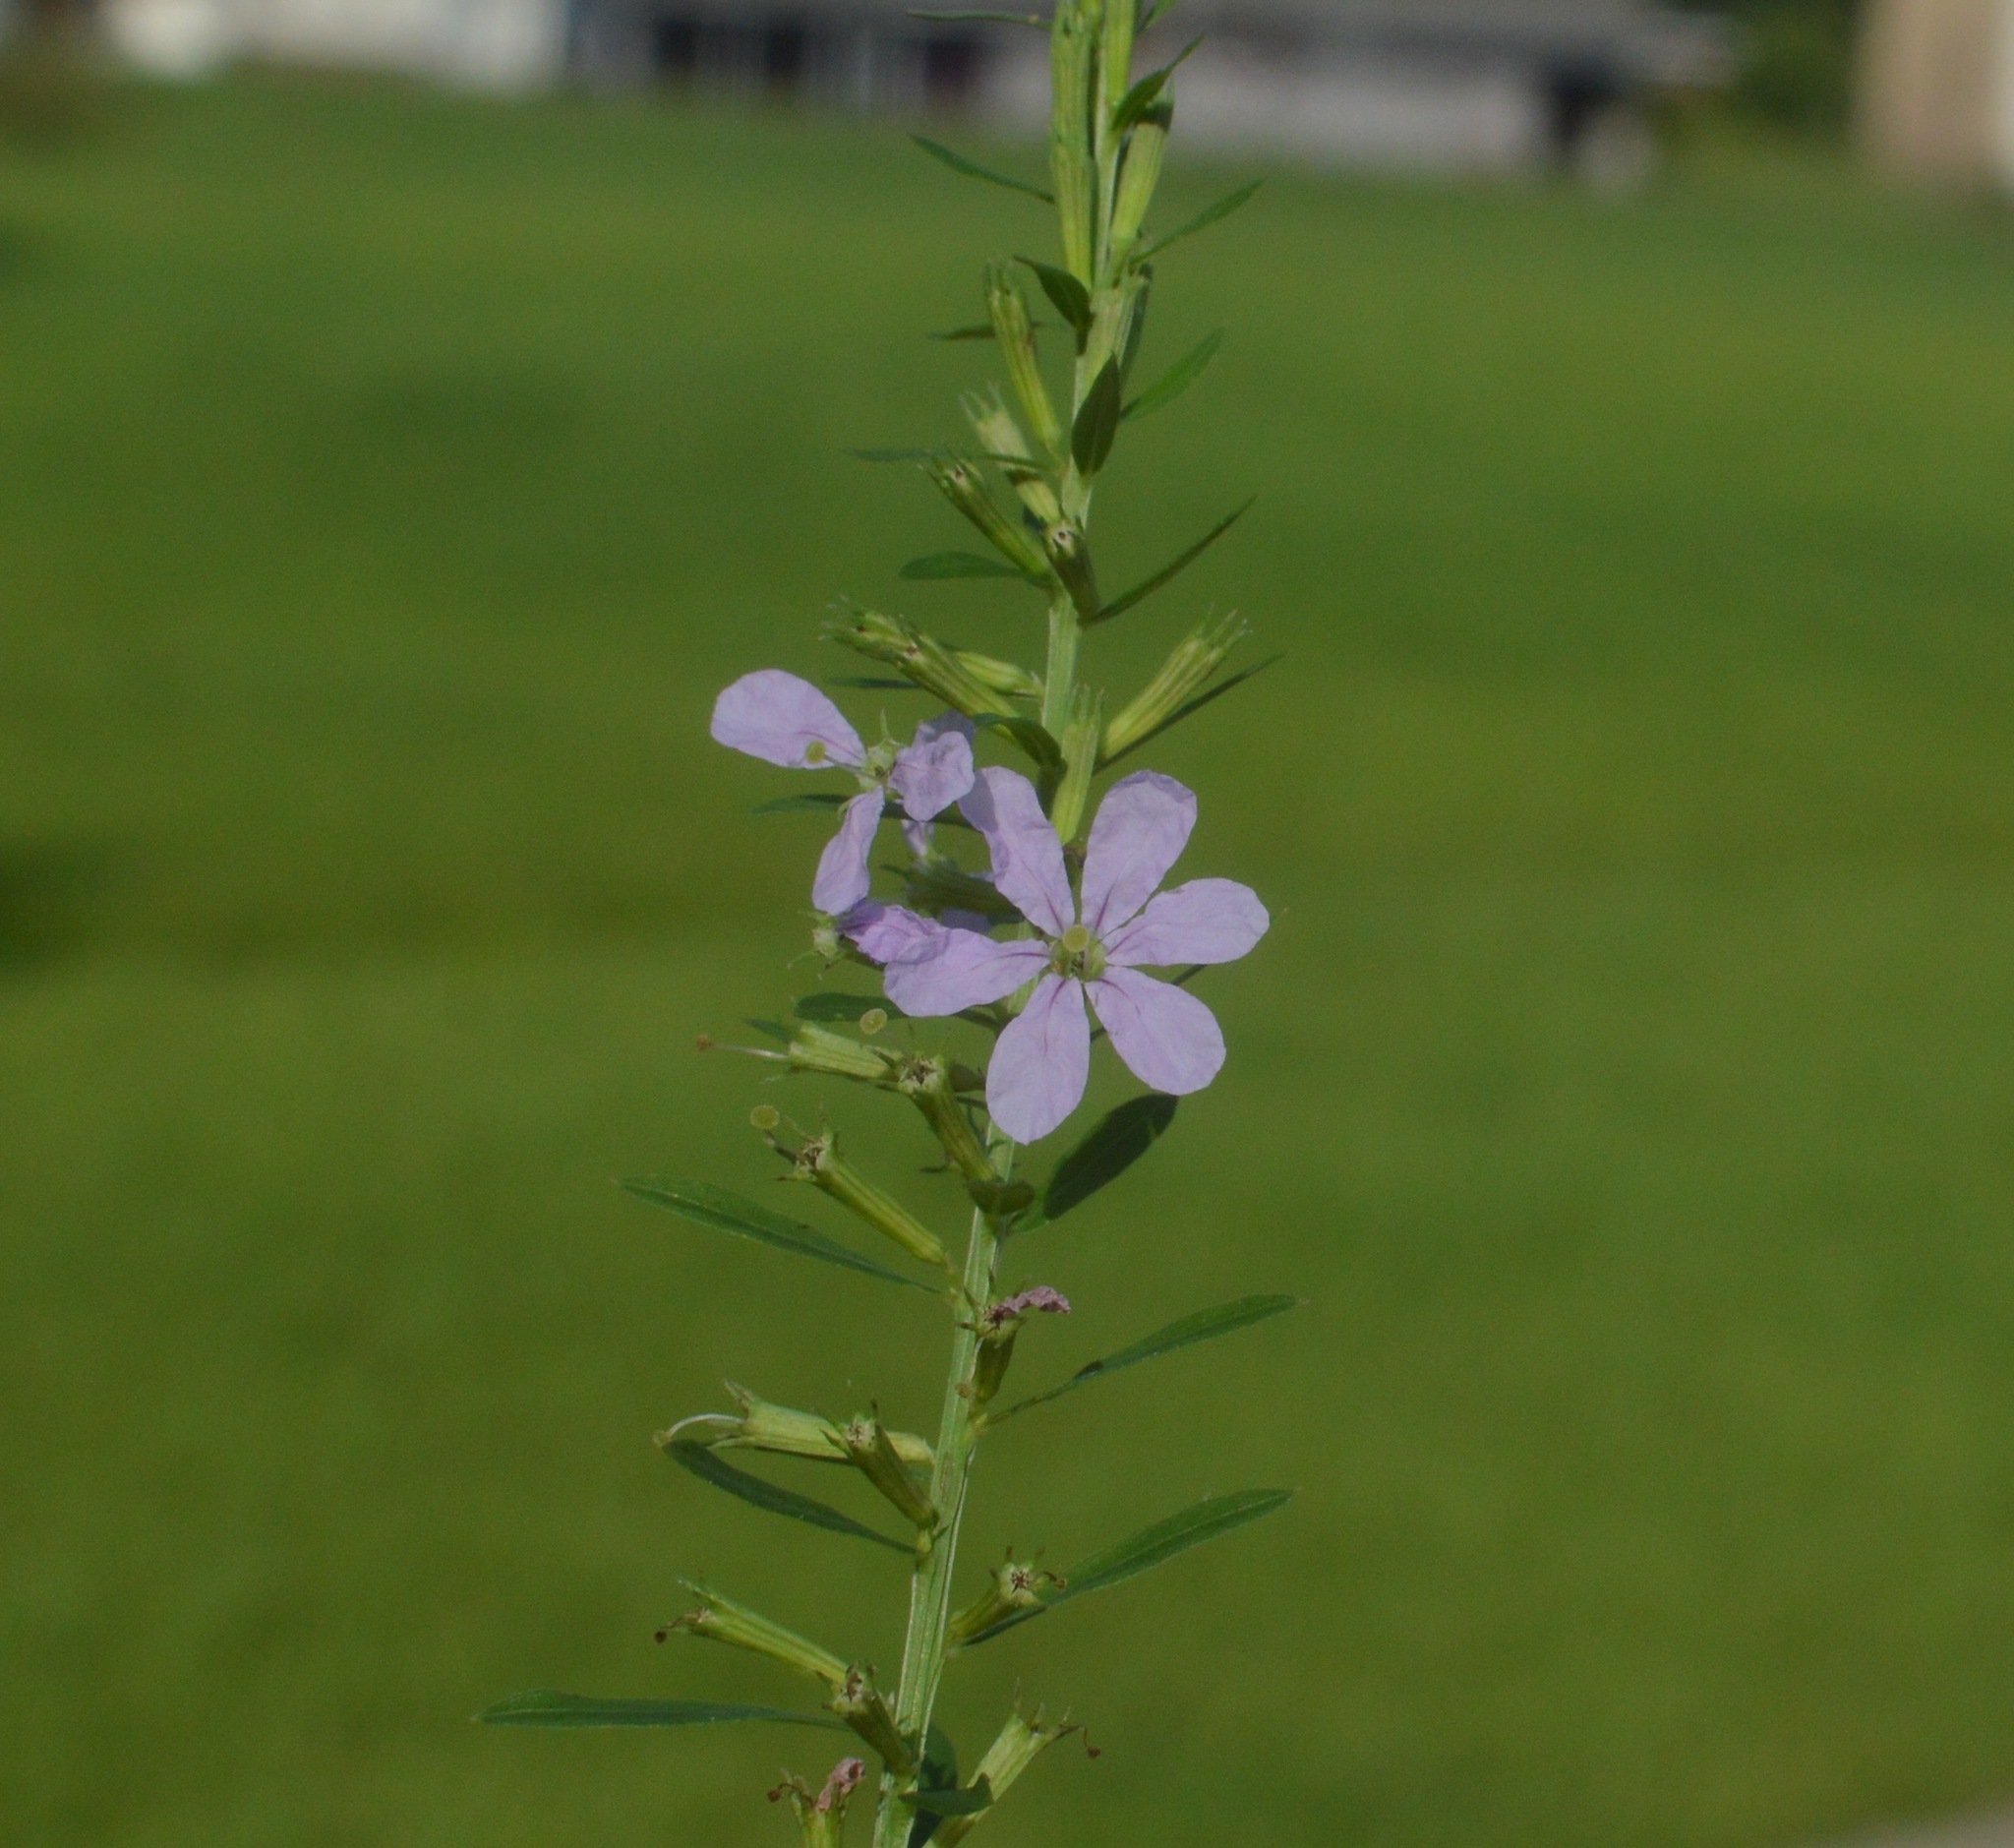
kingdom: Plantae
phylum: Tracheophyta
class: Magnoliopsida
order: Myrtales
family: Lythraceae
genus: Lythrum
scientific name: Lythrum alatum
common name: Winged loosestrife
